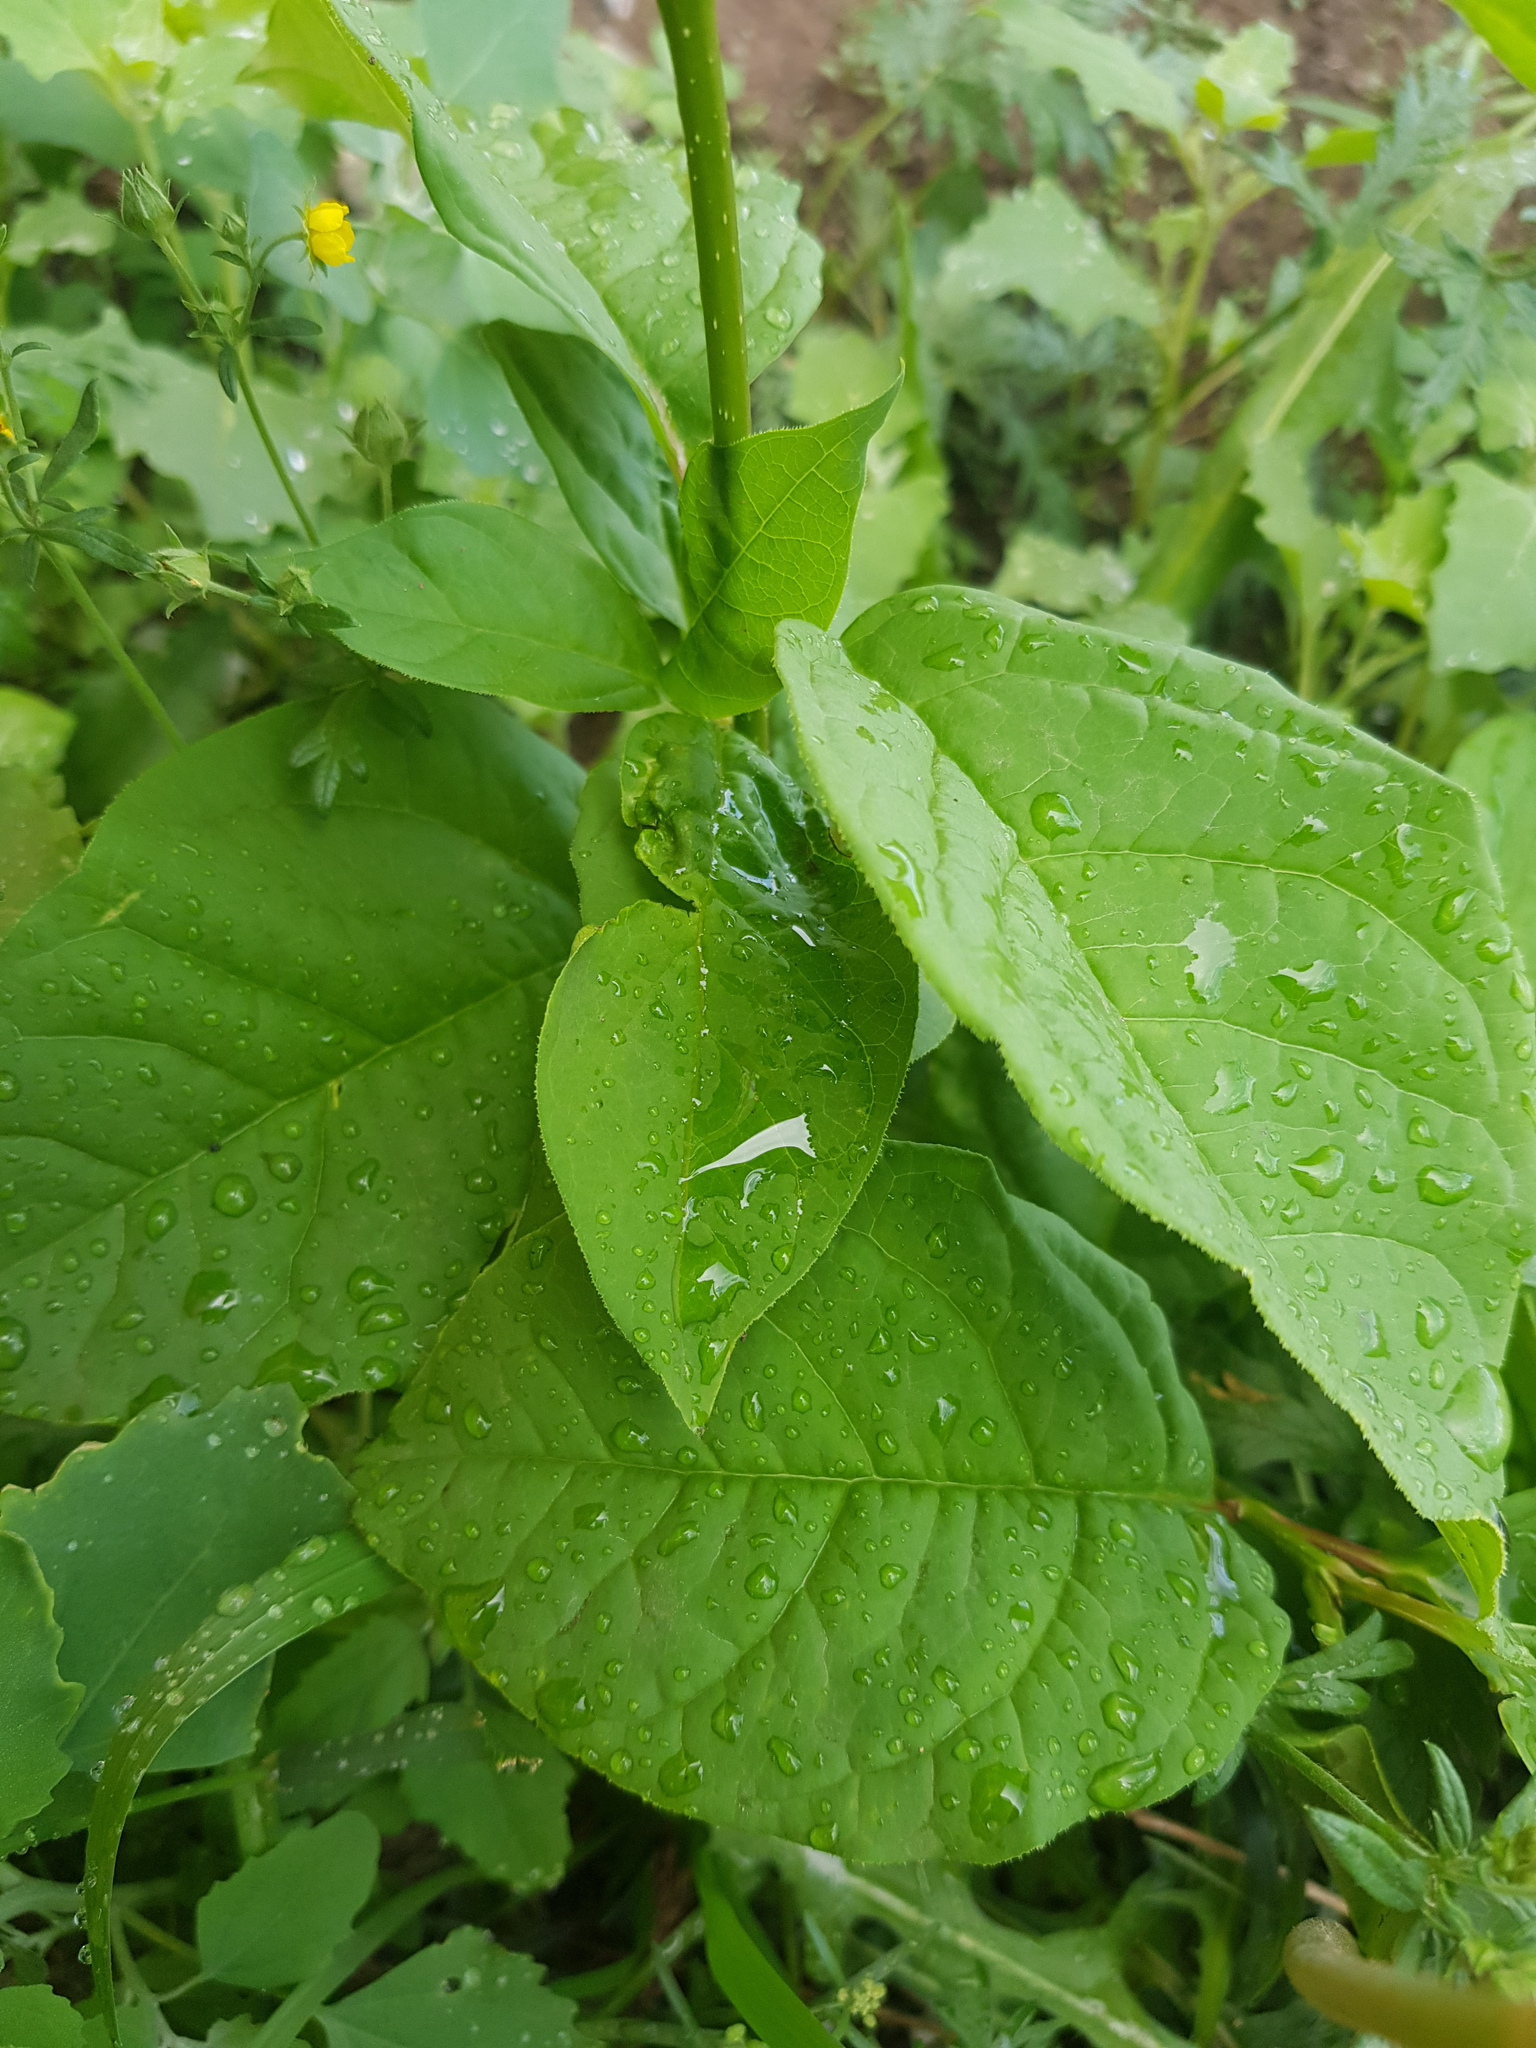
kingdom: Plantae
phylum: Tracheophyta
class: Magnoliopsida
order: Rosales
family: Rosaceae
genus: Prunus
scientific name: Prunus padus
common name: Bird cherry
